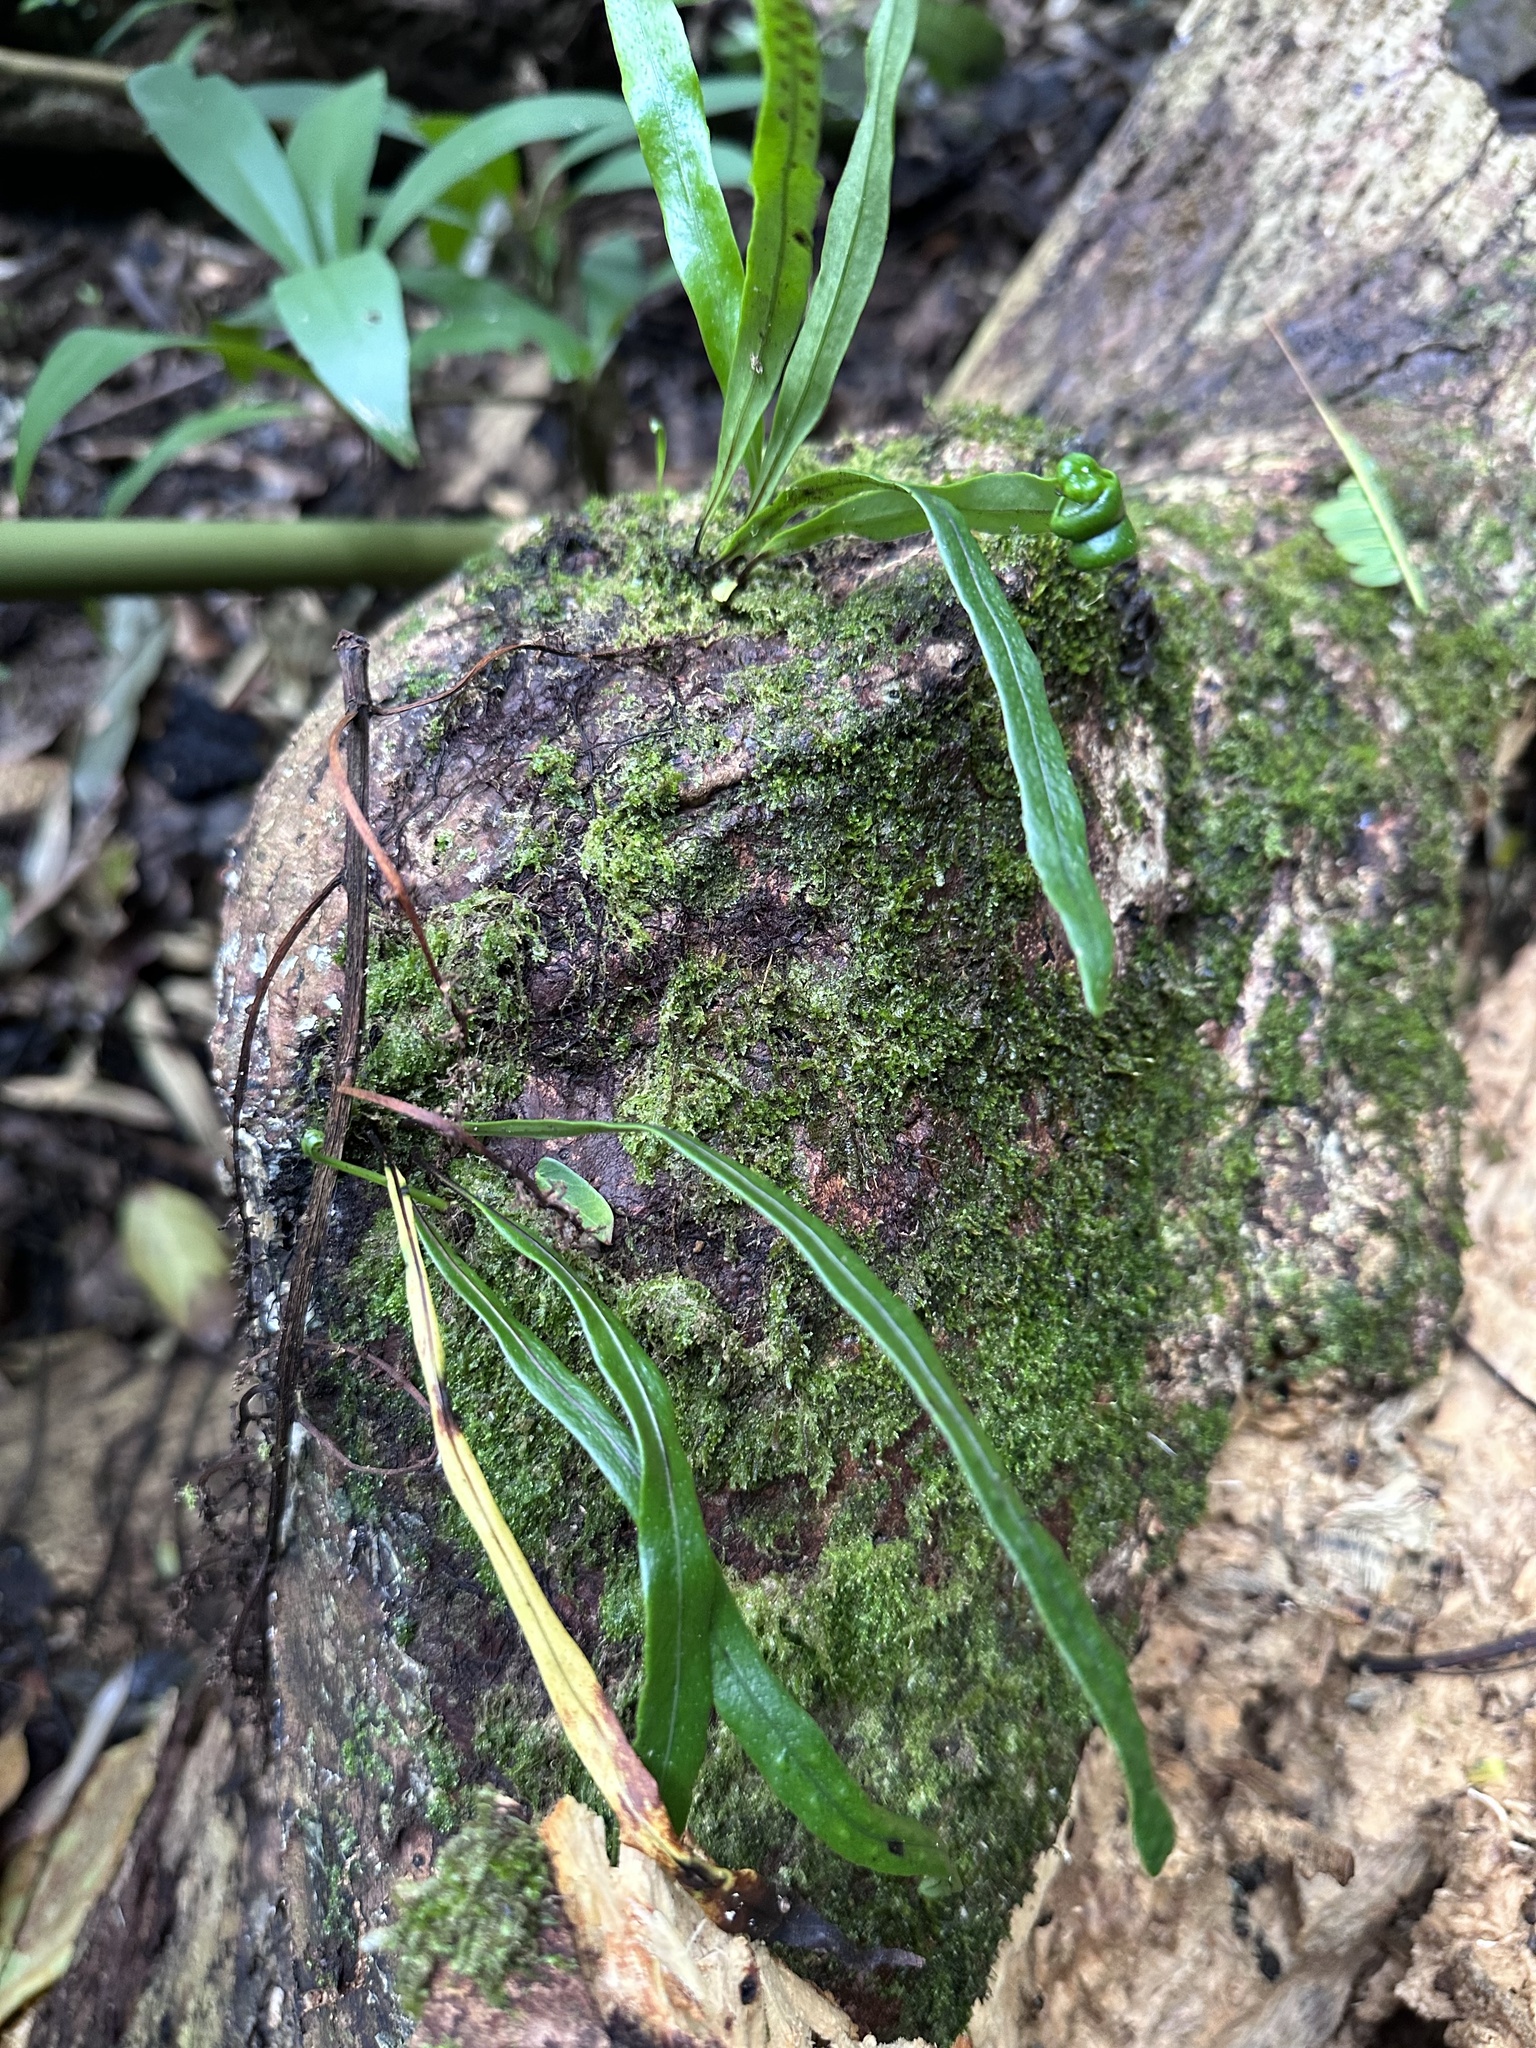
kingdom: Plantae
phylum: Tracheophyta
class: Polypodiopsida
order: Polypodiales
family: Polypodiaceae
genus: Lepisorus
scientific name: Lepisorus thunbergianus
